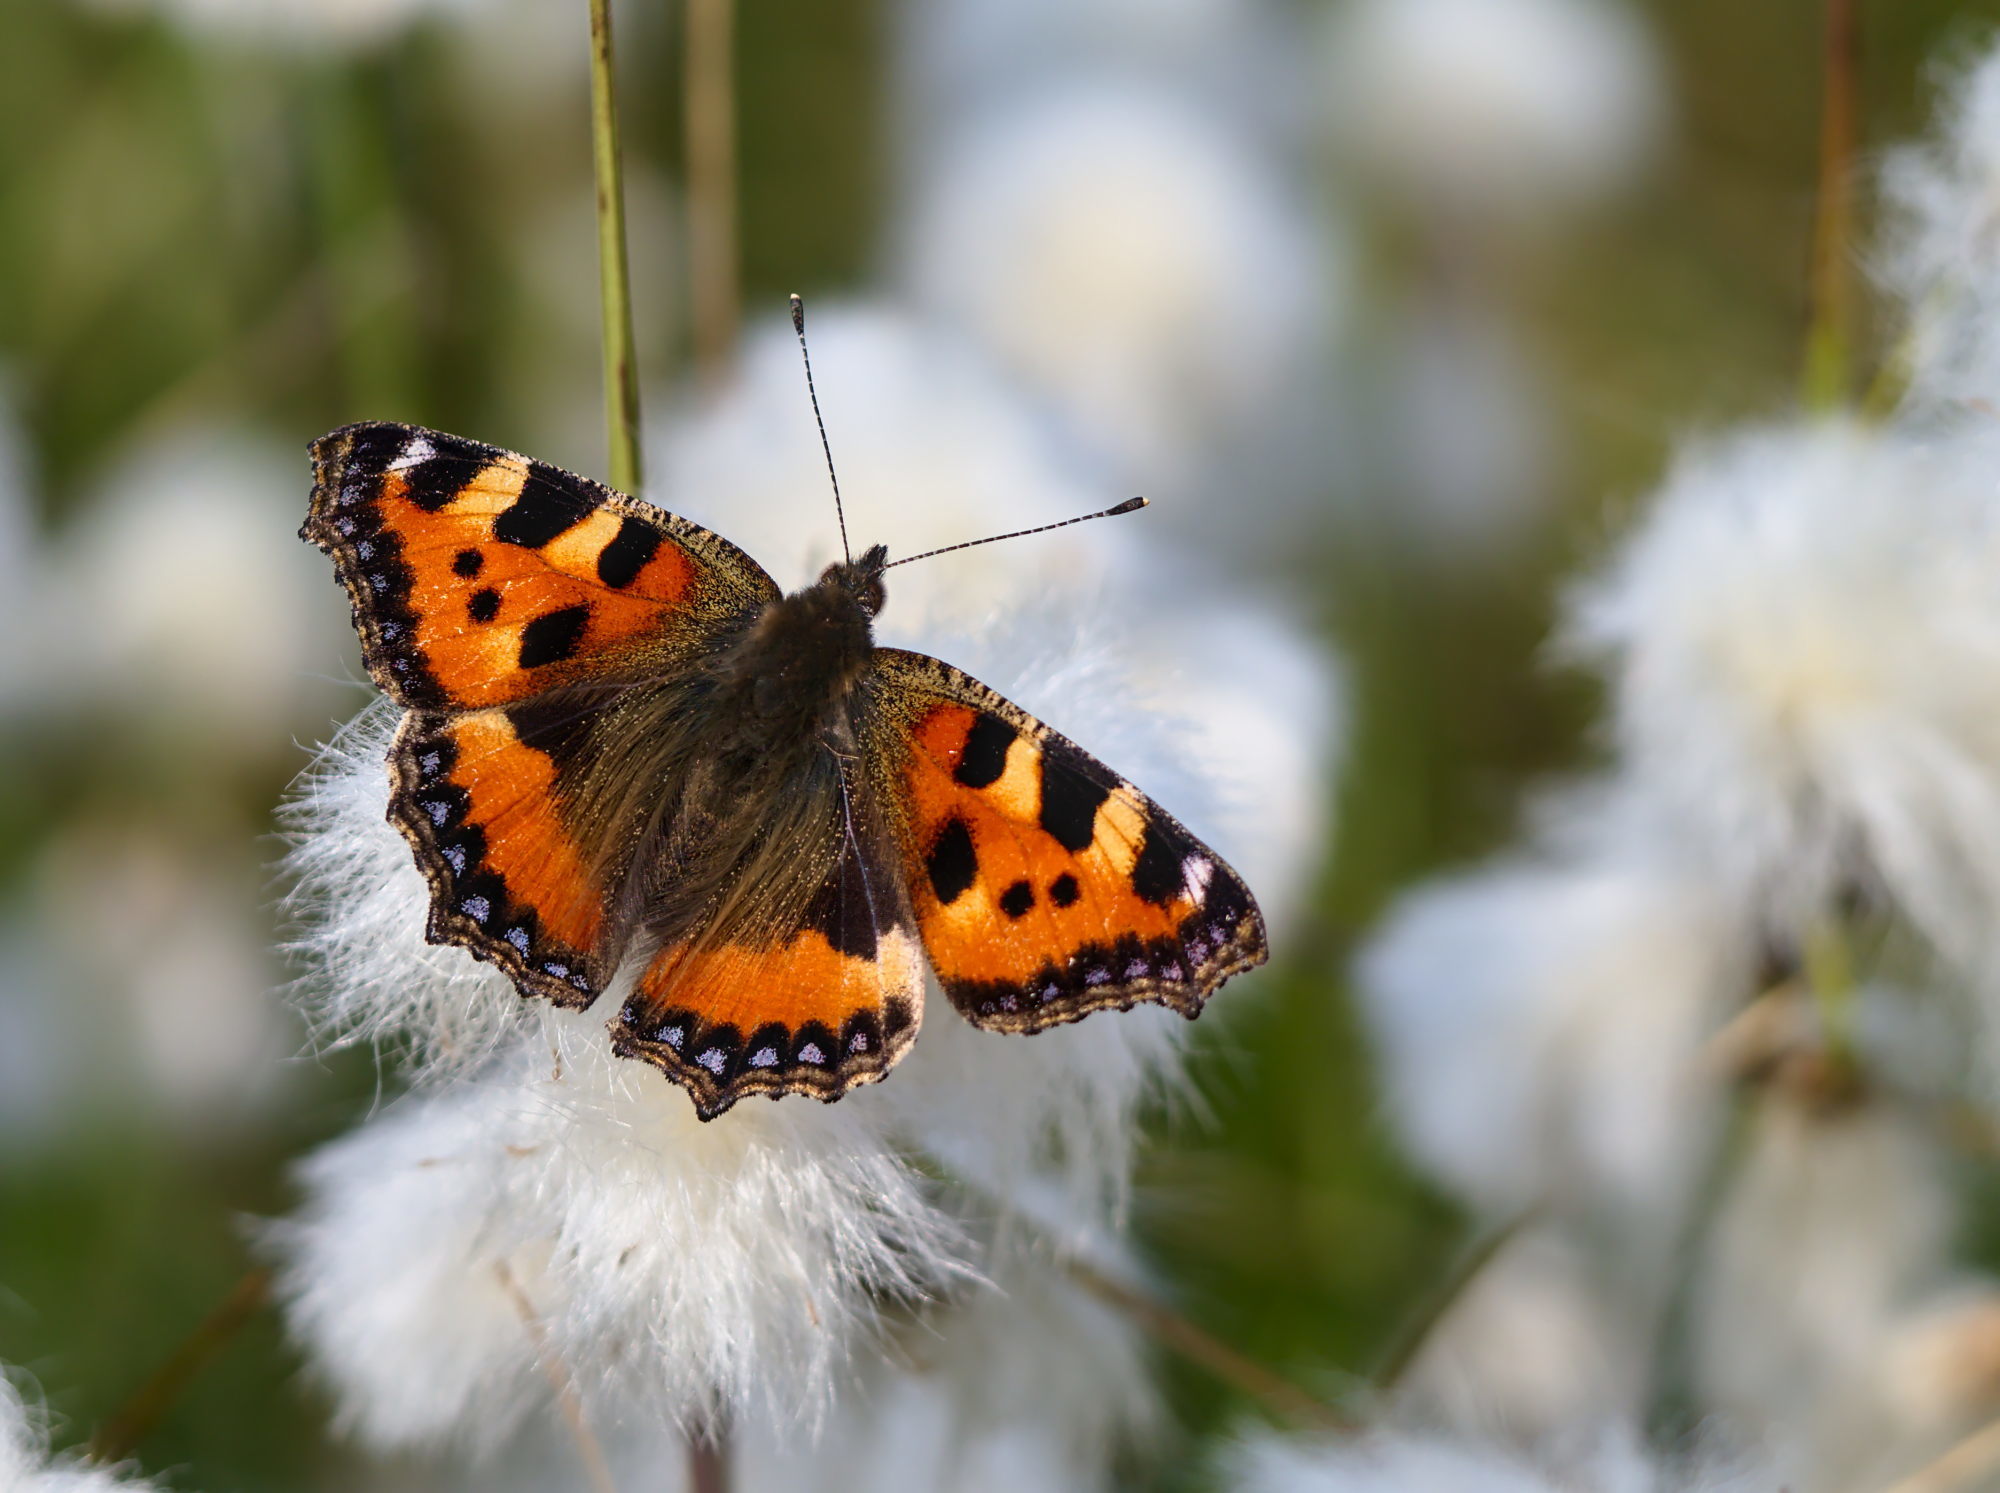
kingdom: Animalia
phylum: Arthropoda
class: Insecta
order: Lepidoptera
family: Nymphalidae
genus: Aglais
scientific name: Aglais urticae
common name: Small tortoiseshell
